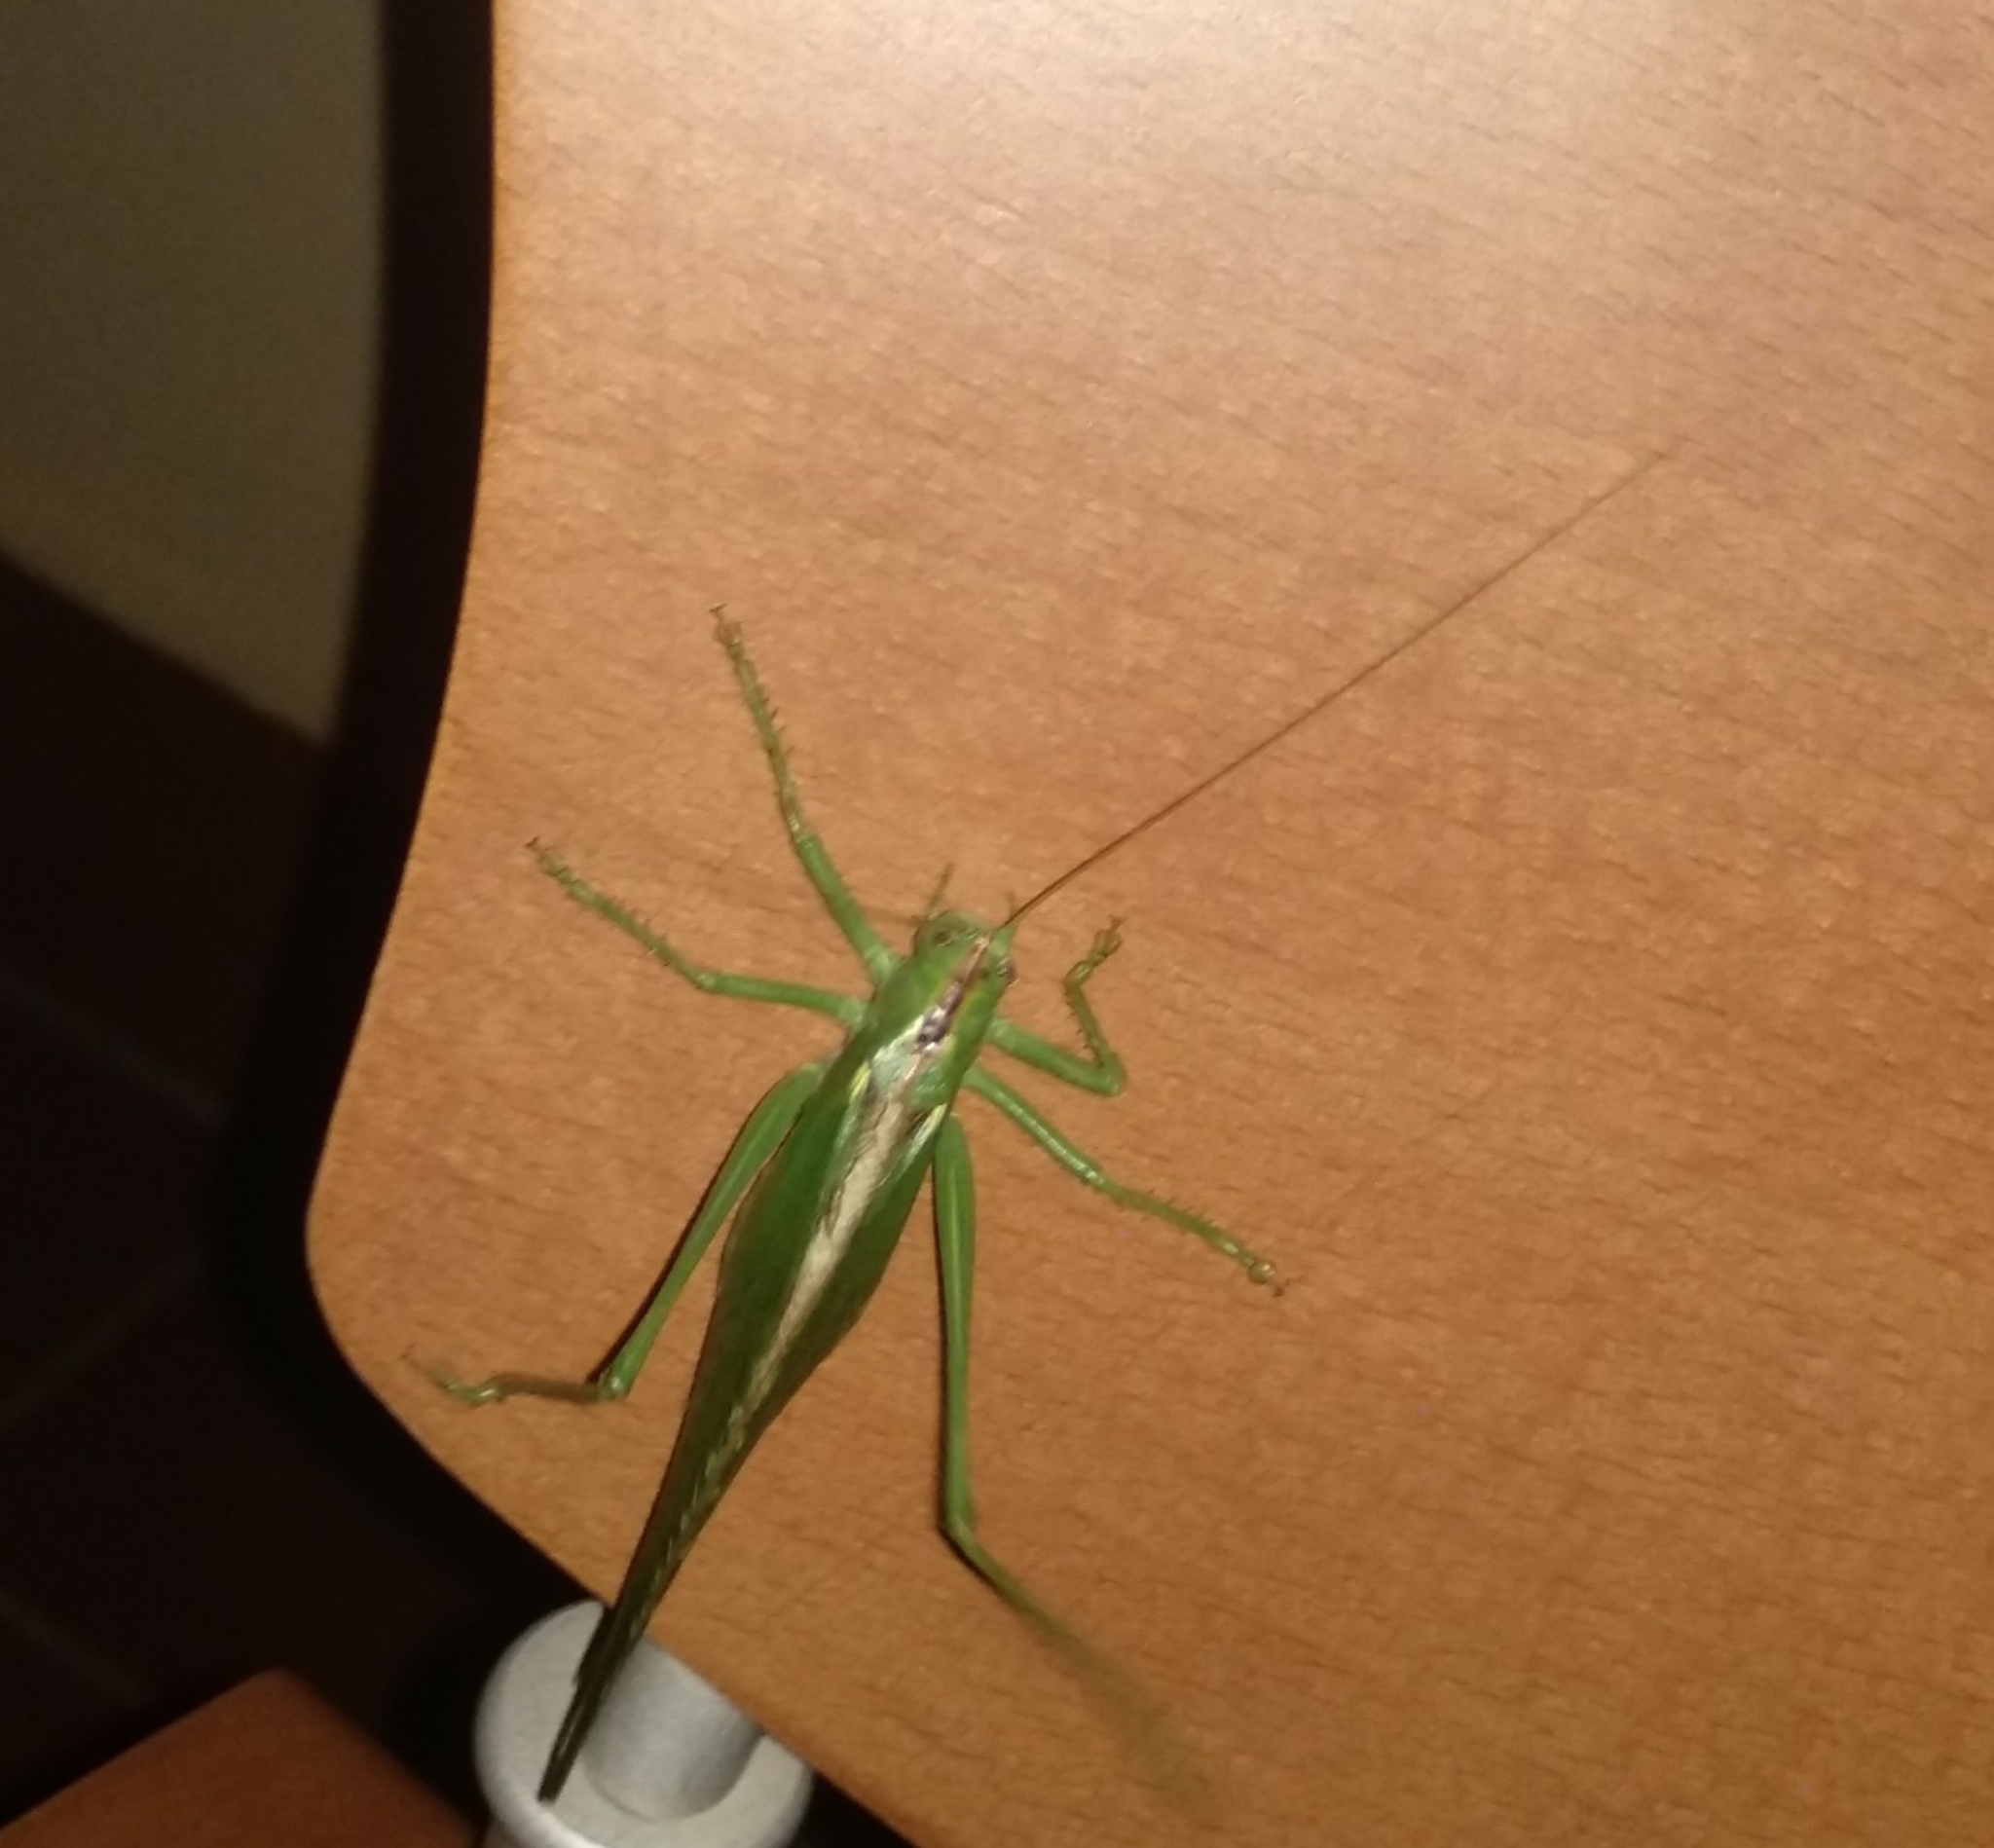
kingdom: Animalia
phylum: Arthropoda
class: Insecta
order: Orthoptera
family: Tettigoniidae
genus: Tettigonia
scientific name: Tettigonia viridissima
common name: Great green bush-cricket
